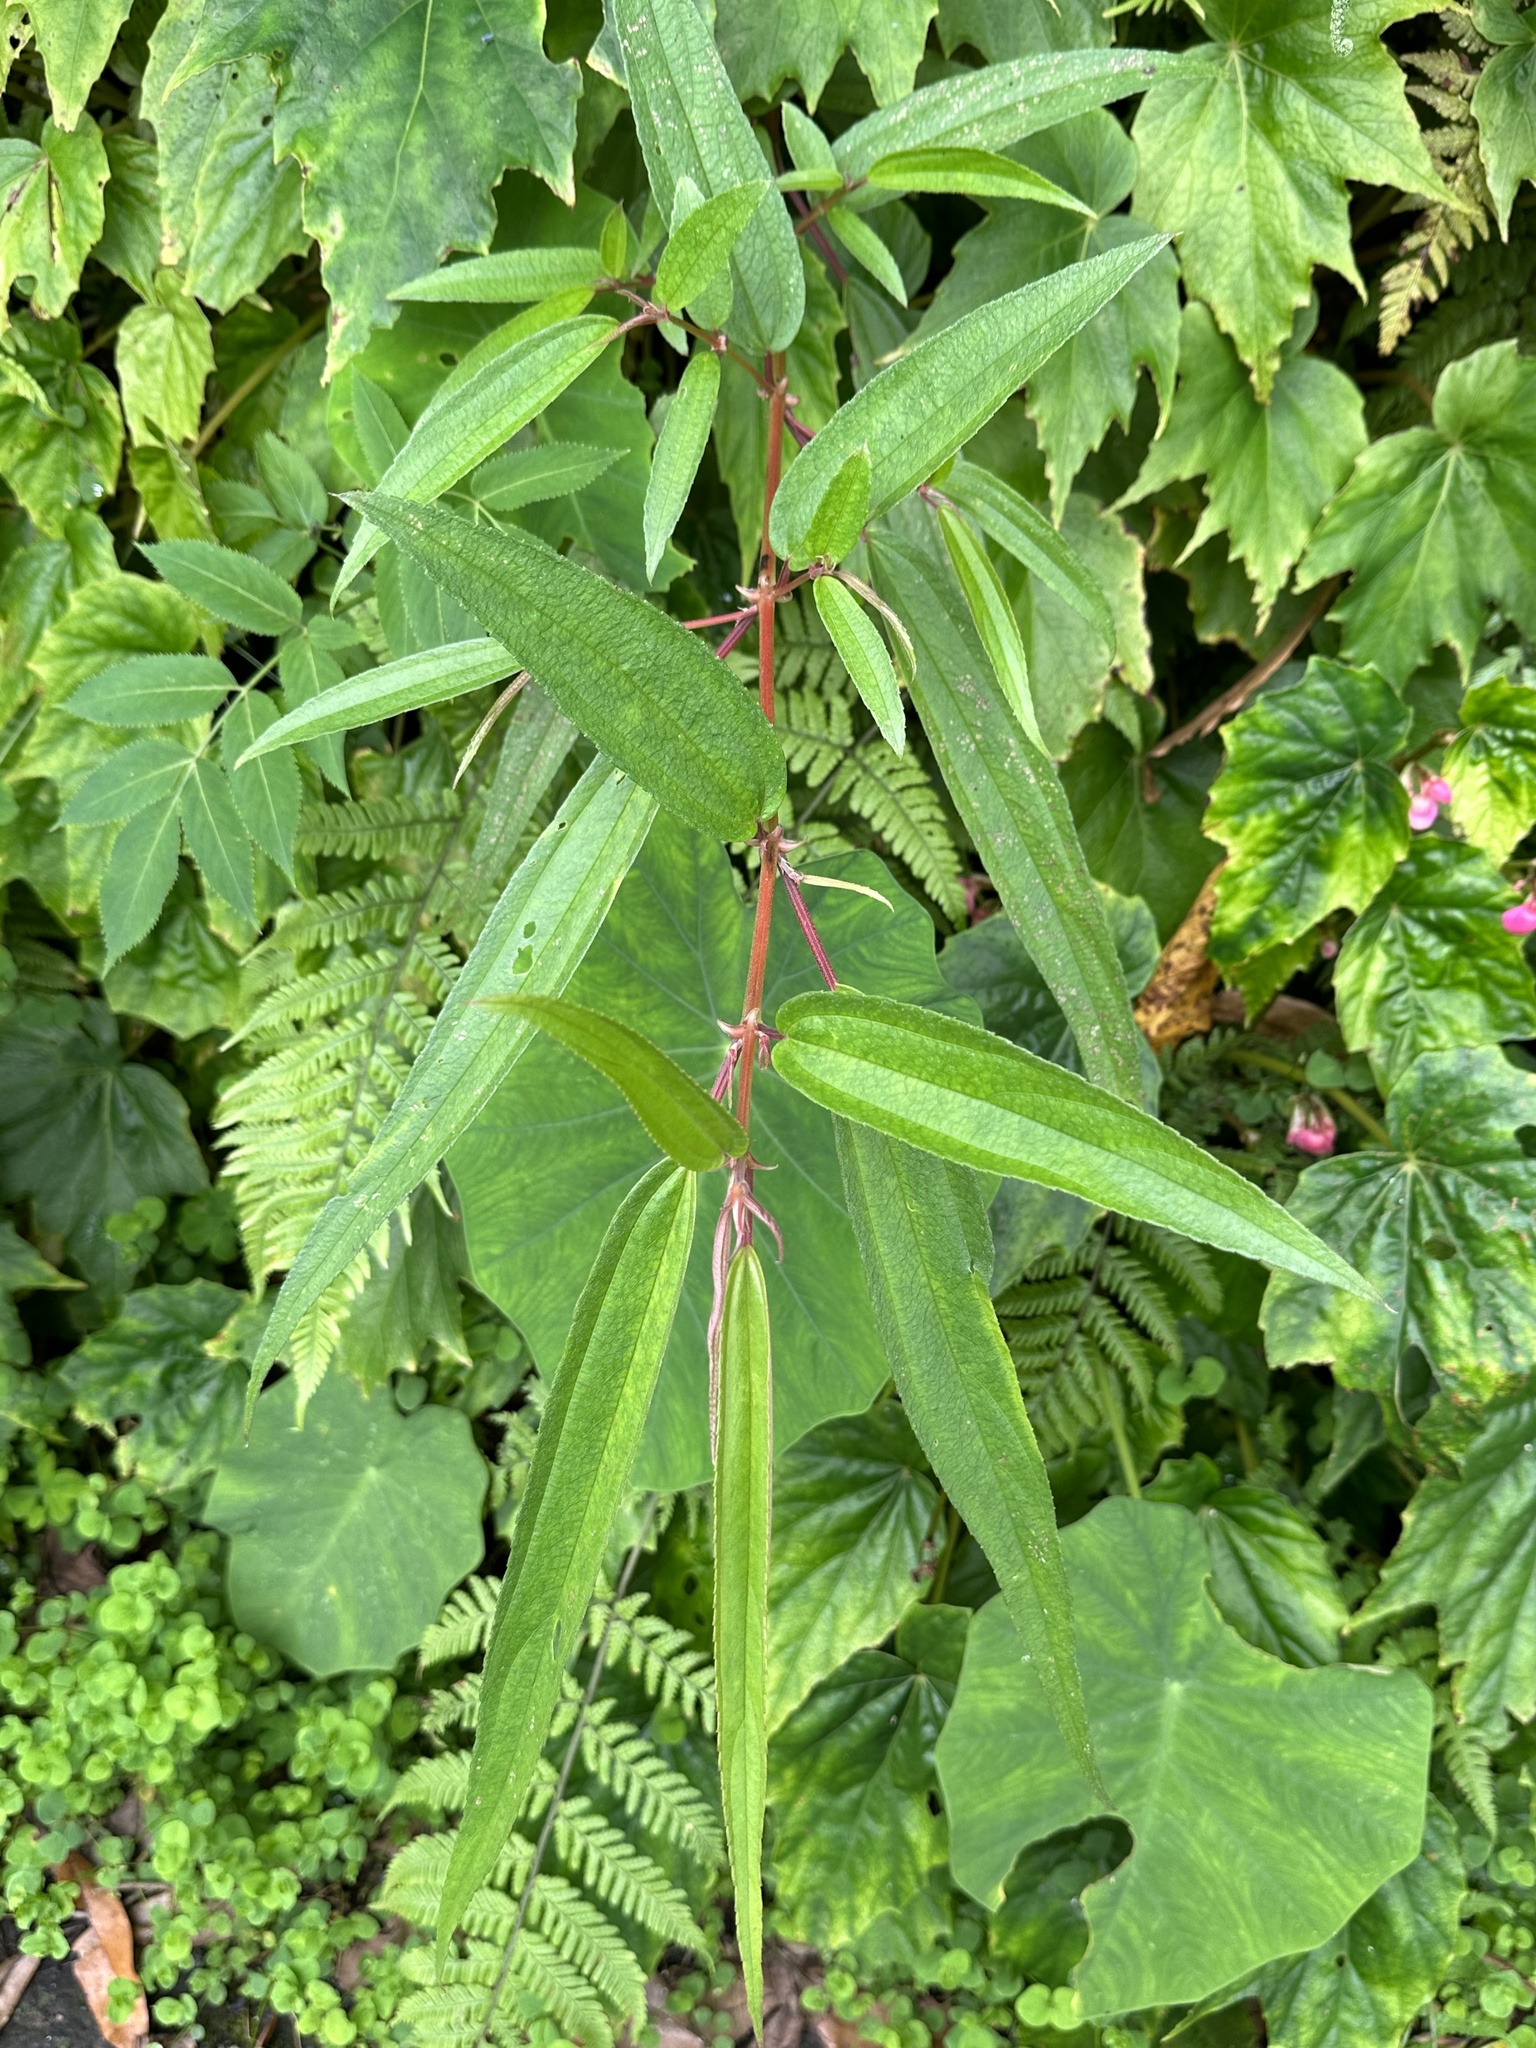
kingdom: Plantae
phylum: Tracheophyta
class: Magnoliopsida
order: Rosales
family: Urticaceae
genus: Boehmeria
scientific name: Boehmeria densiflora
